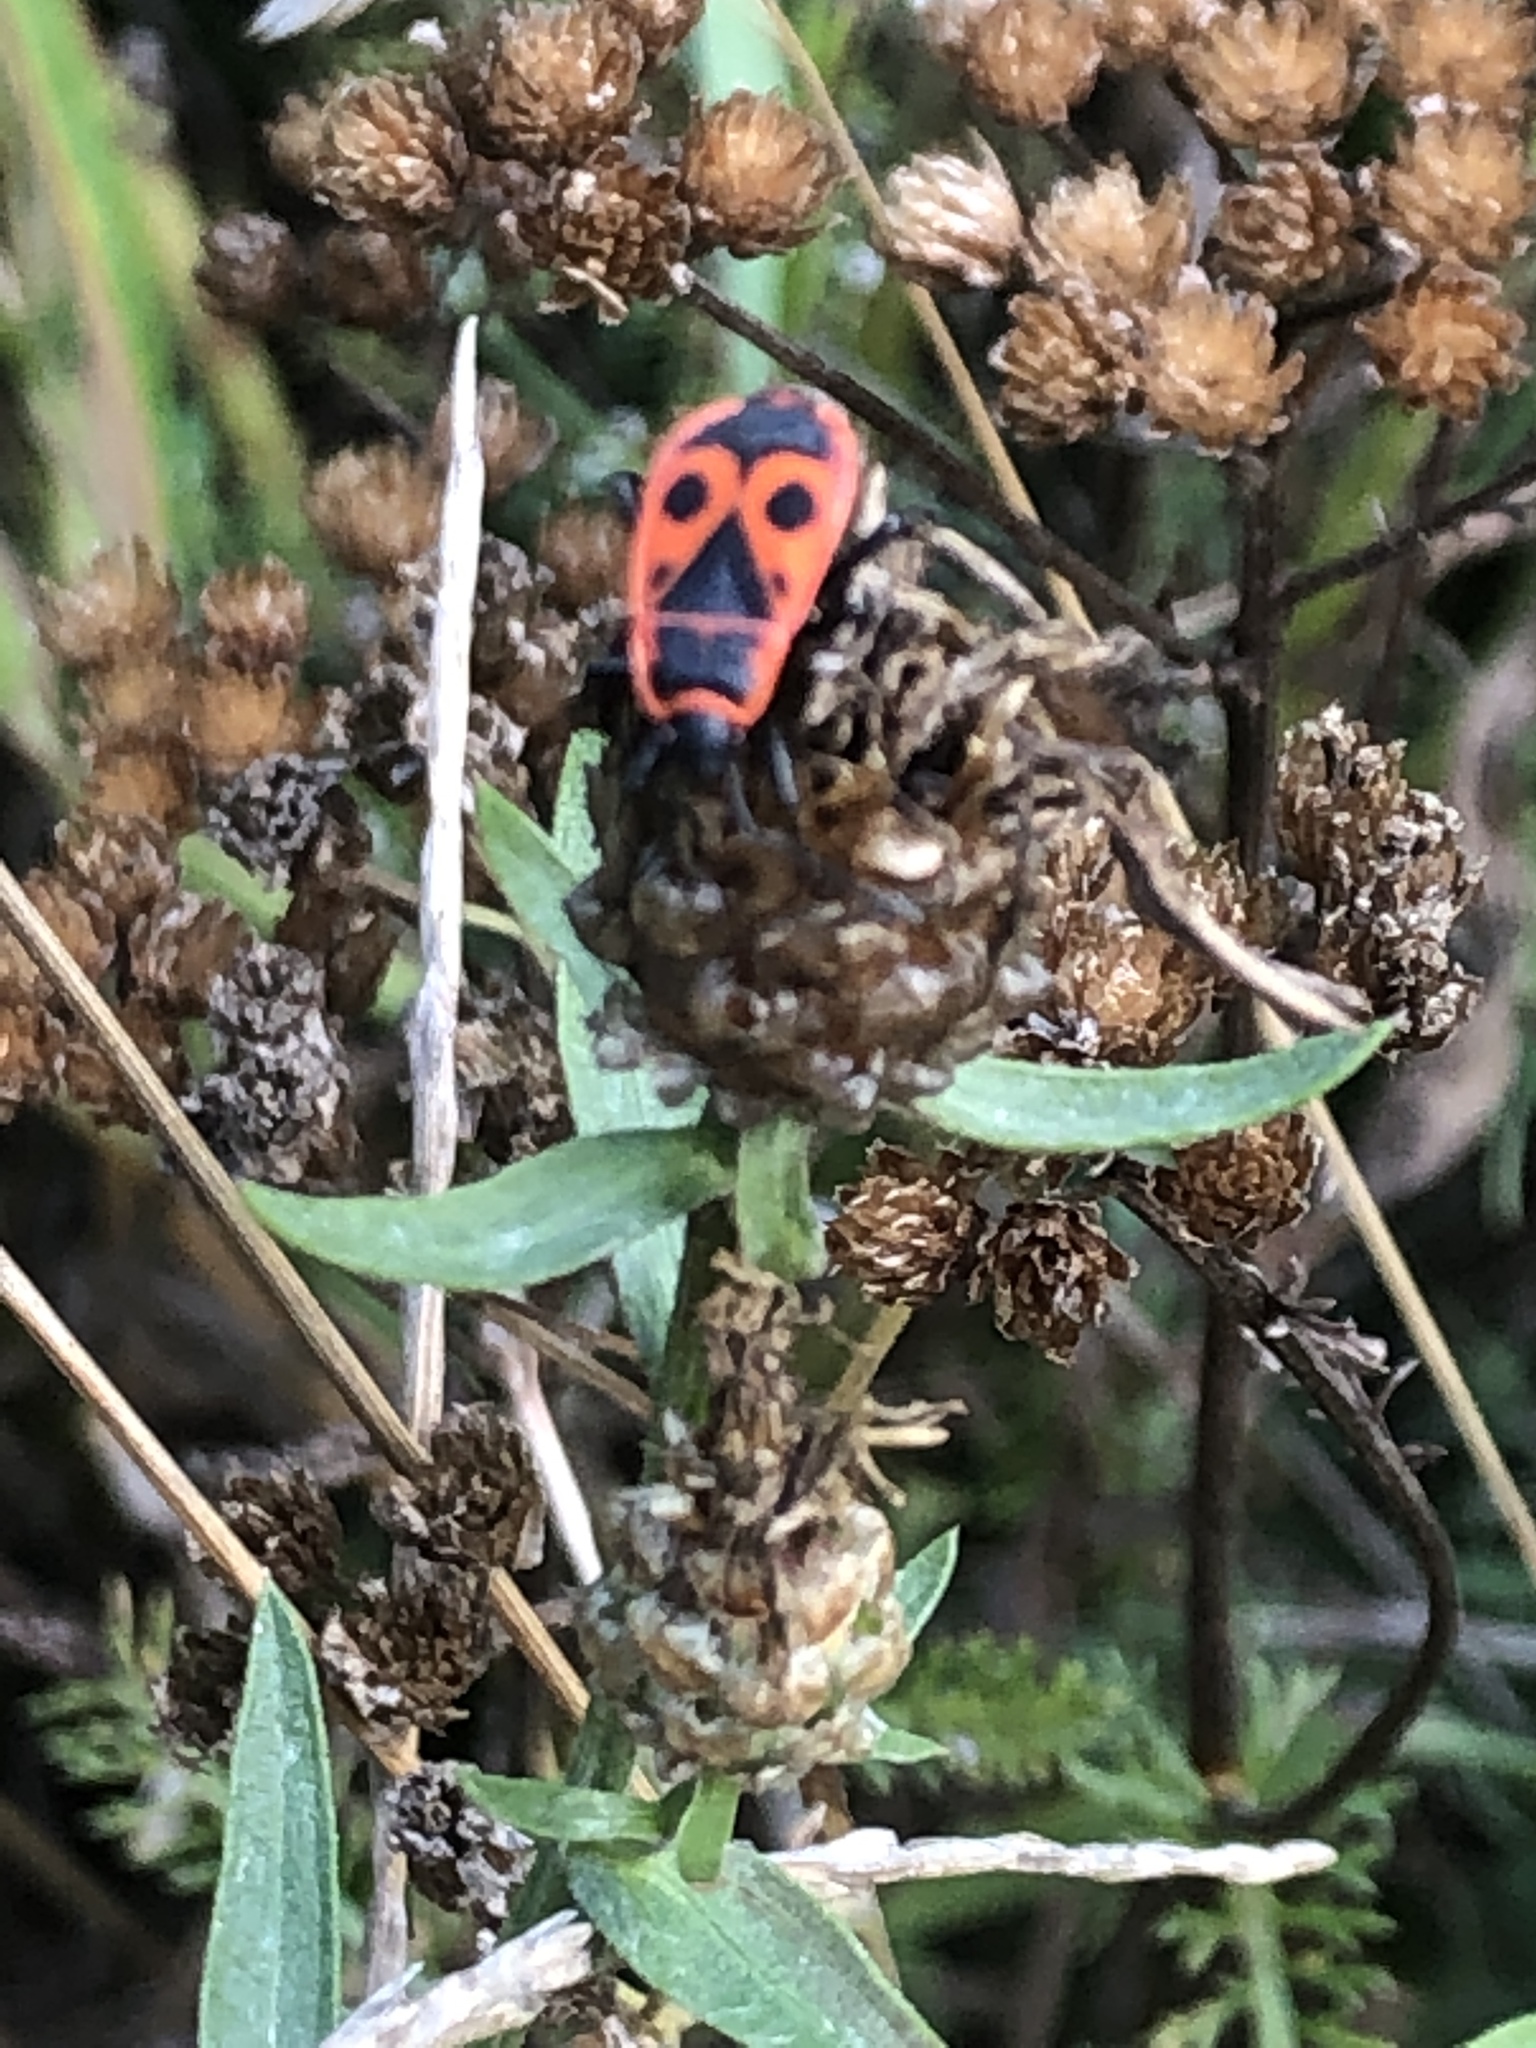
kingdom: Animalia
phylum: Arthropoda
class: Insecta
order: Hemiptera
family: Pyrrhocoridae
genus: Pyrrhocoris
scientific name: Pyrrhocoris apterus
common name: Firebug
